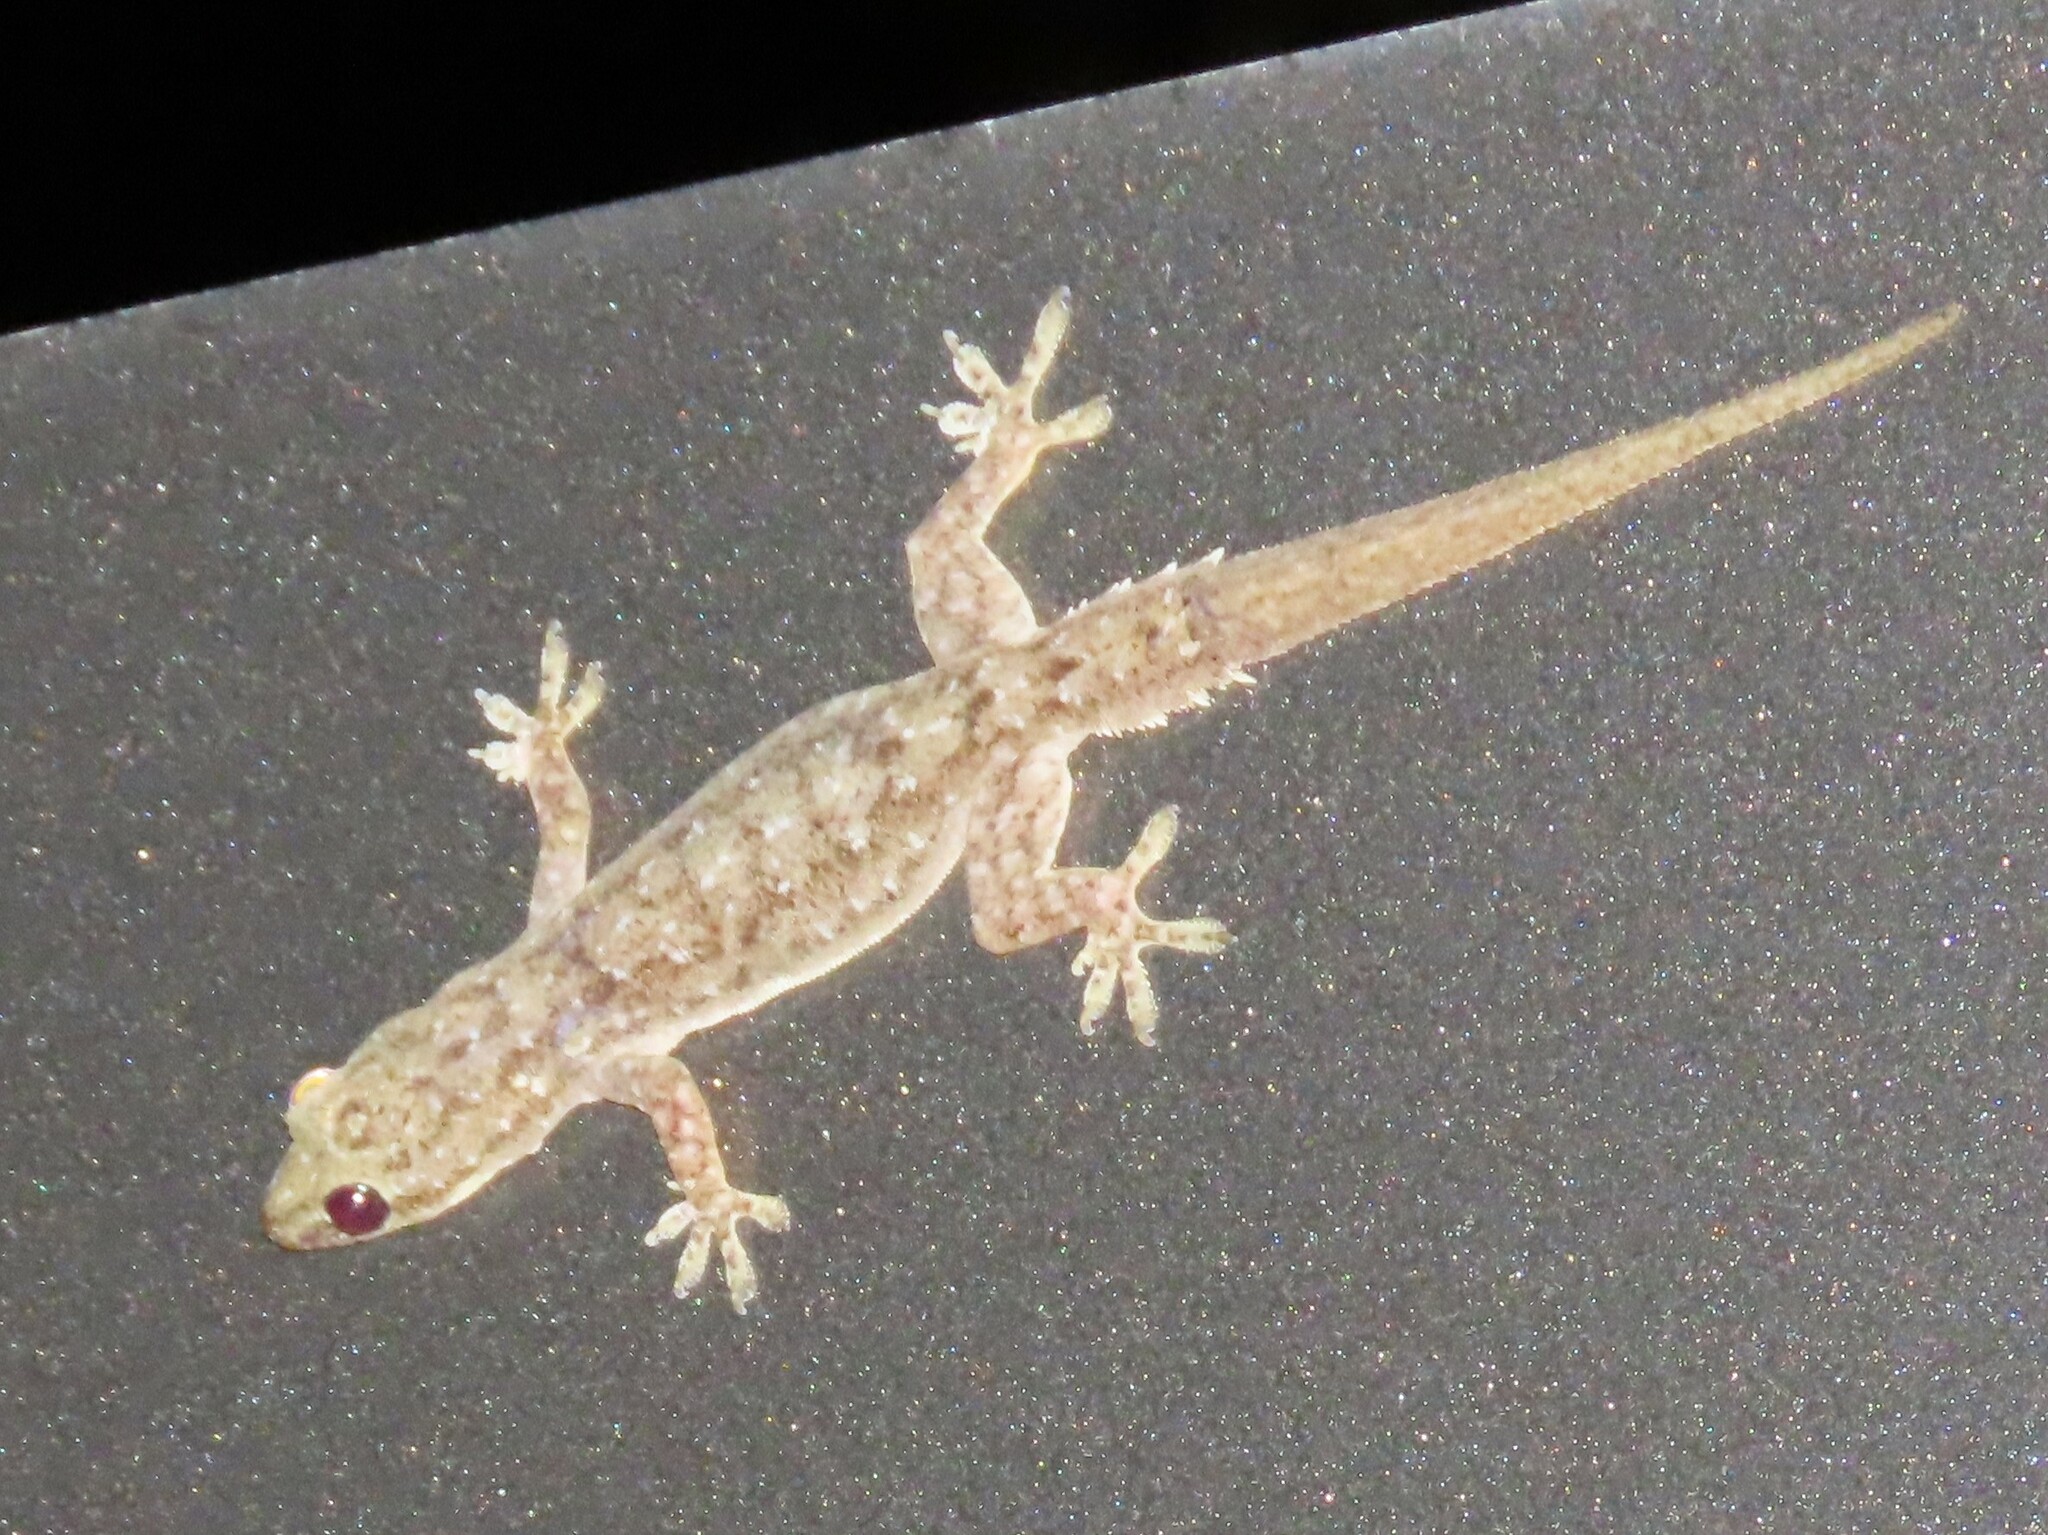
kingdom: Animalia
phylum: Chordata
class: Squamata
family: Gekkonidae
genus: Hemidactylus
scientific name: Hemidactylus garnotii
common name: Indo-pacific gecko
